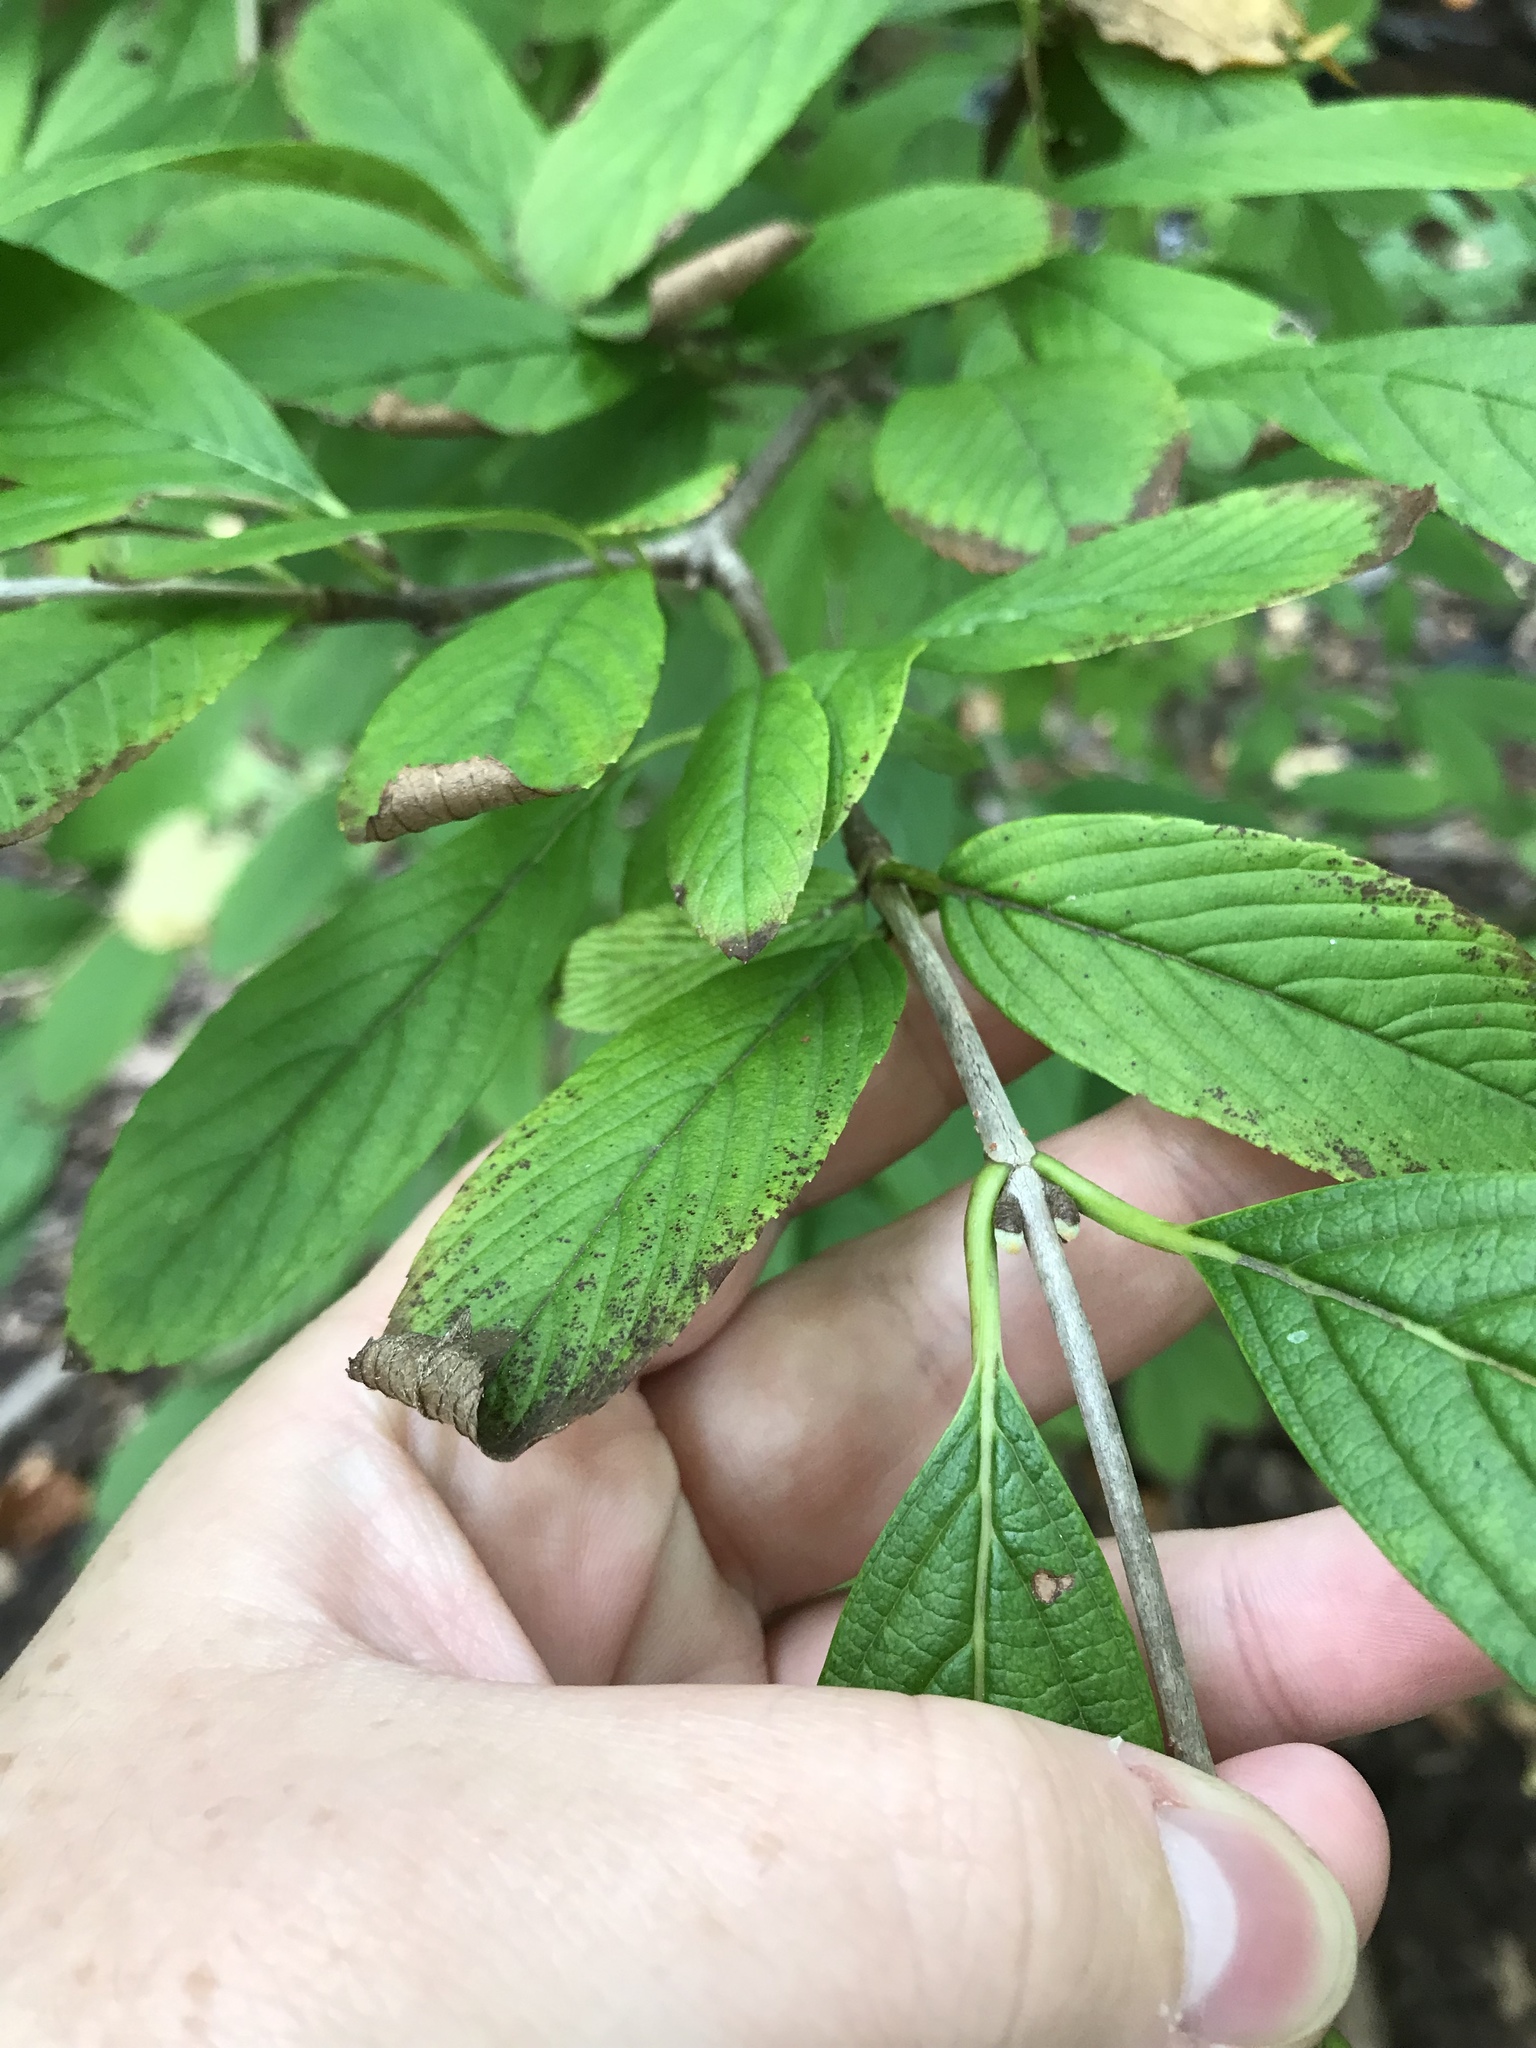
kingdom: Plantae
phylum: Tracheophyta
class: Magnoliopsida
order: Dipsacales
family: Viburnaceae
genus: Viburnum
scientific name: Viburnum sieboldii
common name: Siebold's arrowwood
